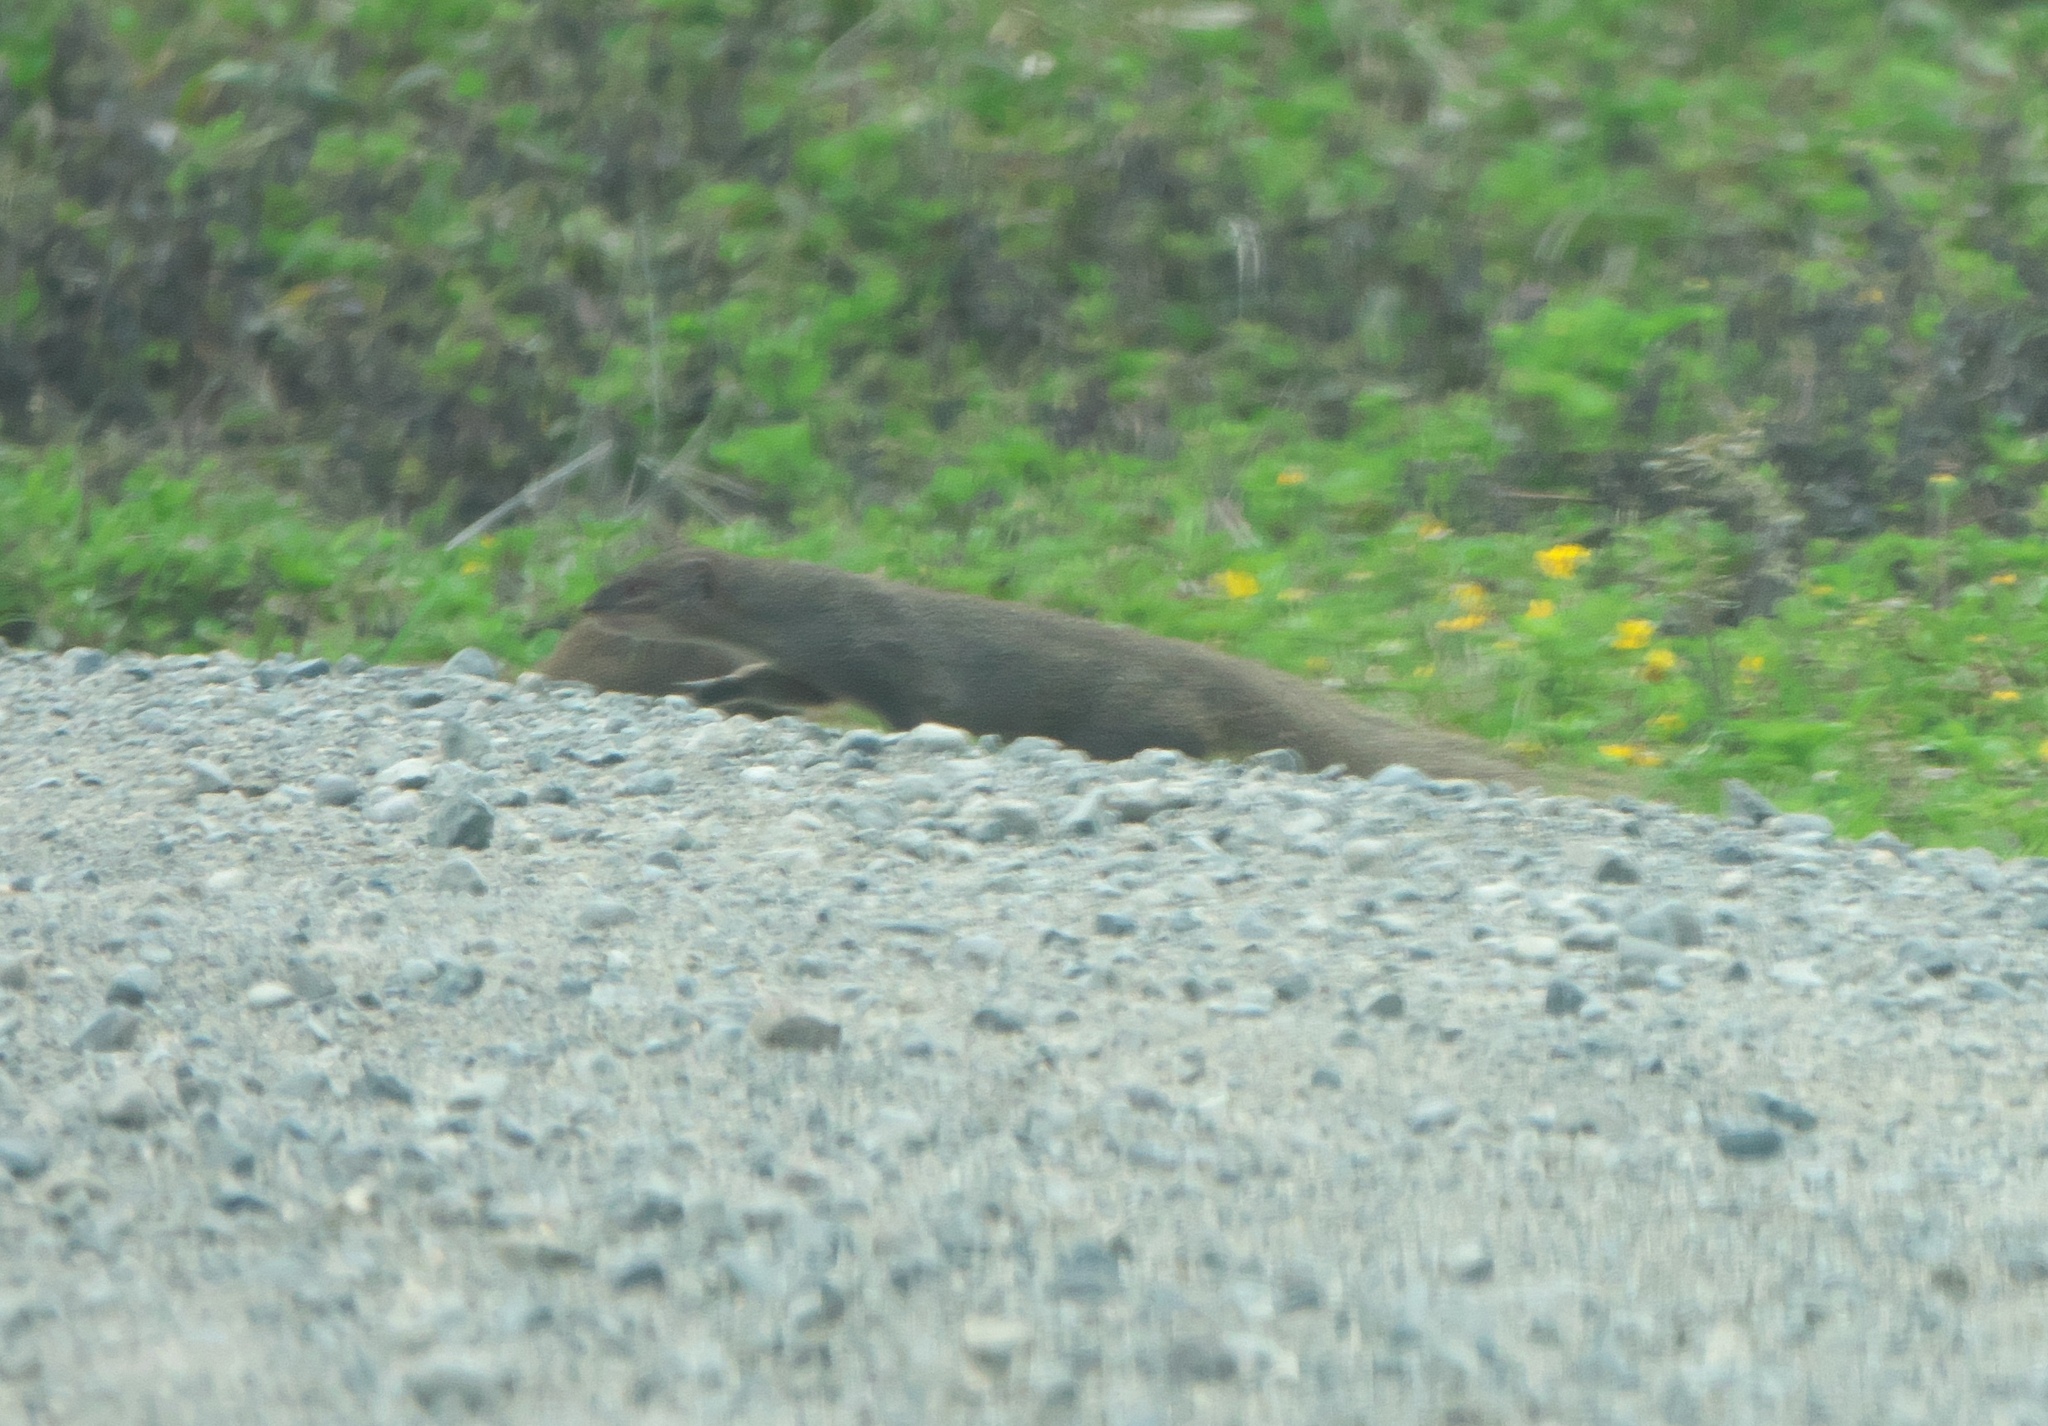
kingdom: Animalia
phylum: Chordata
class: Mammalia
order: Carnivora
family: Herpestidae
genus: Herpestes
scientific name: Herpestes javanicus
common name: Small asian mongoose
